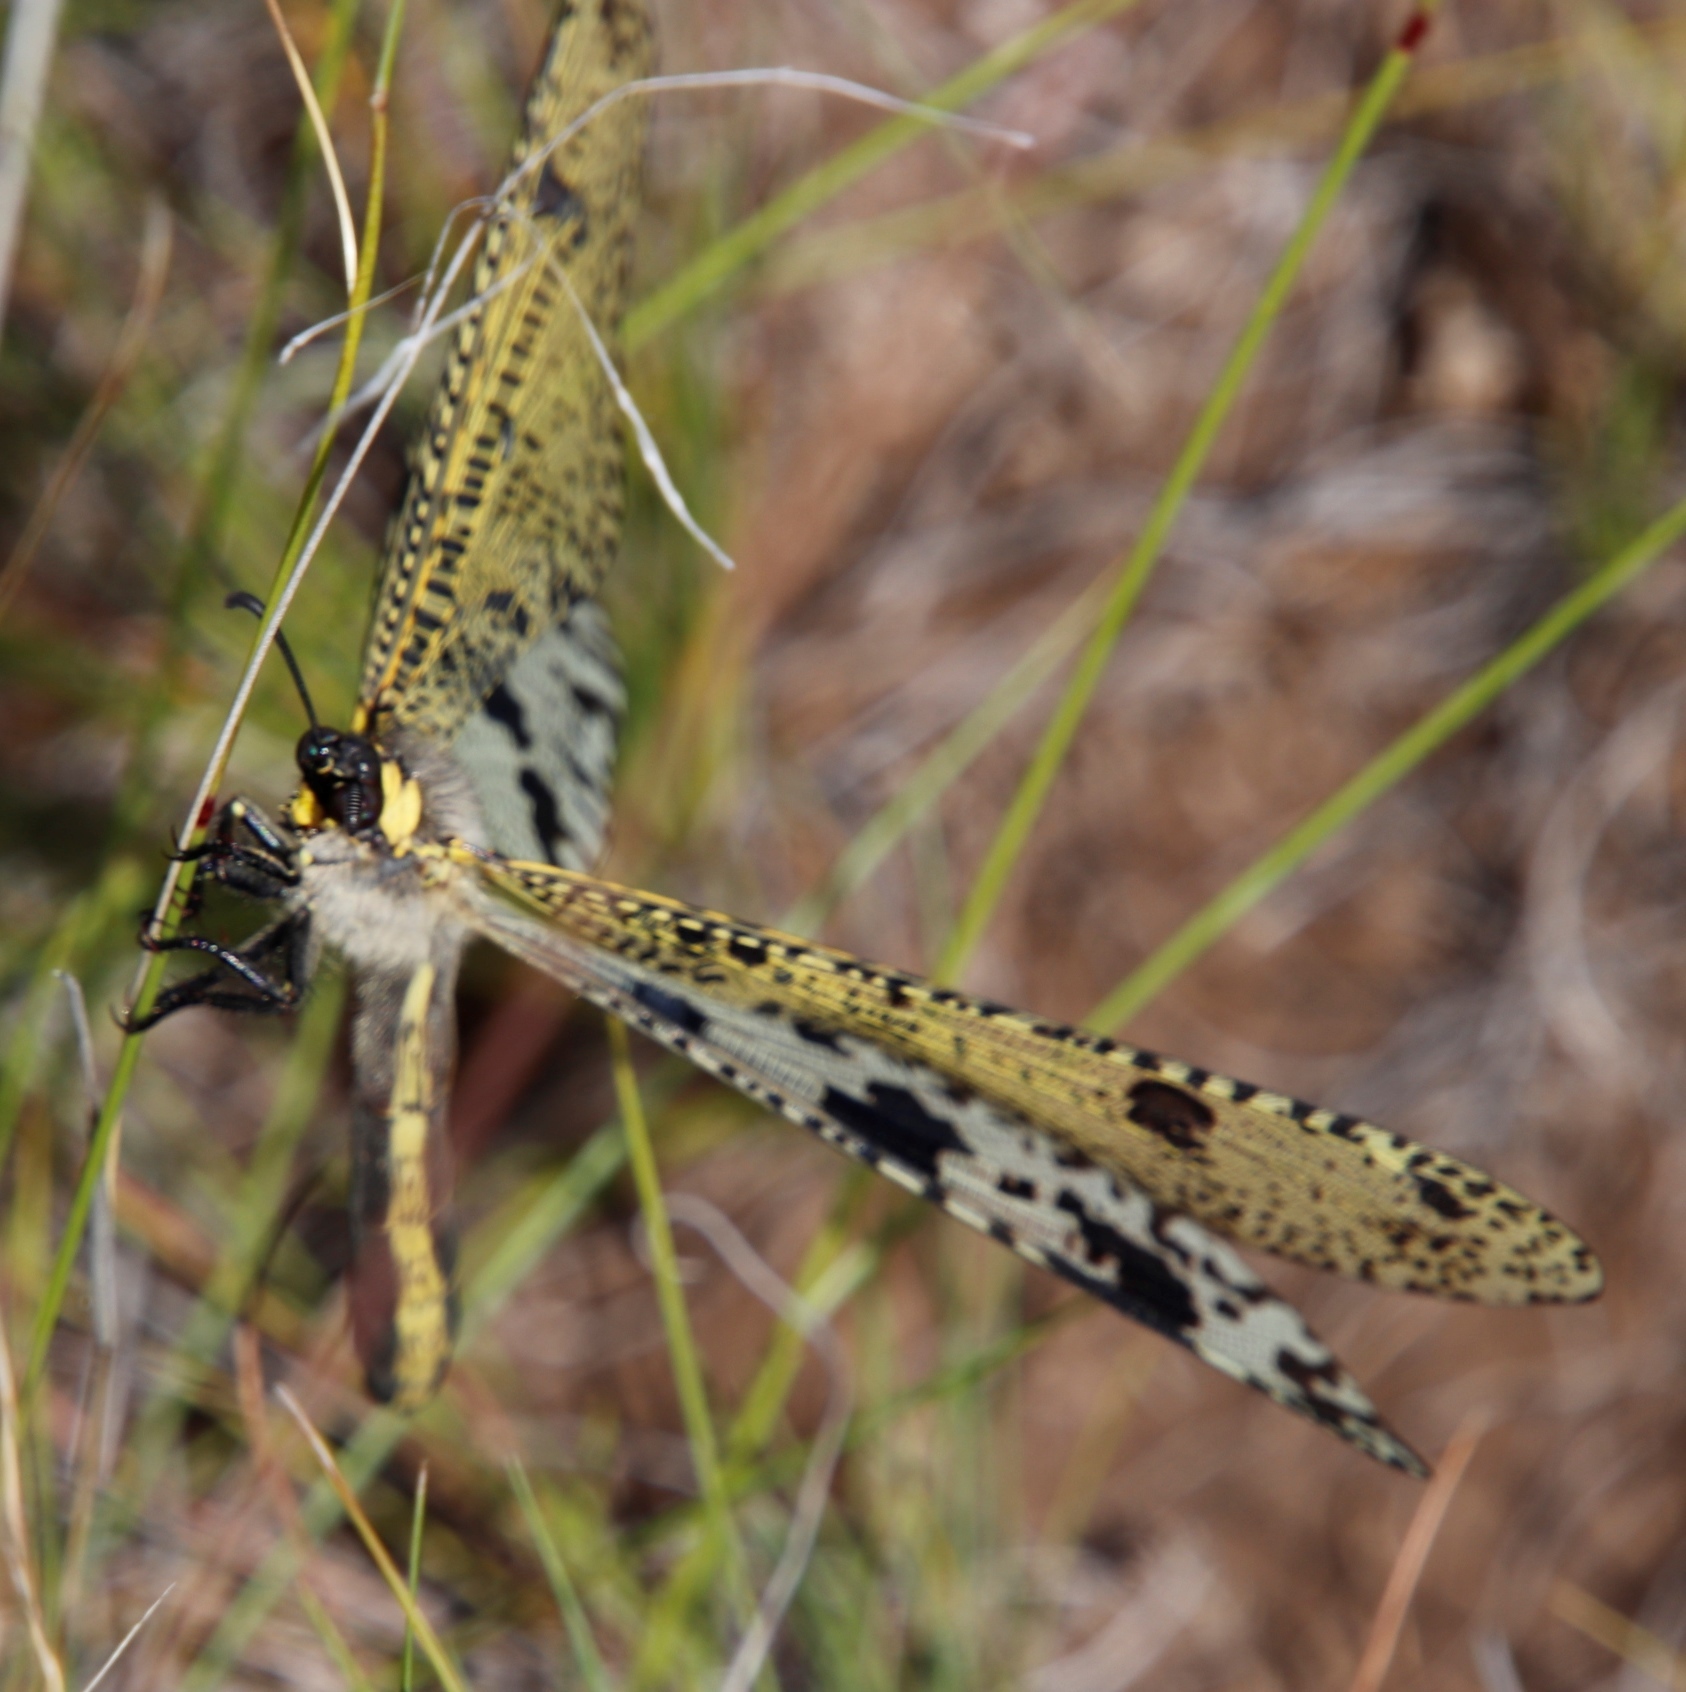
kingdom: Animalia
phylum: Arthropoda
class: Insecta
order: Neuroptera
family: Myrmeleontidae
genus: Palpares
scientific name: Palpares caffer
